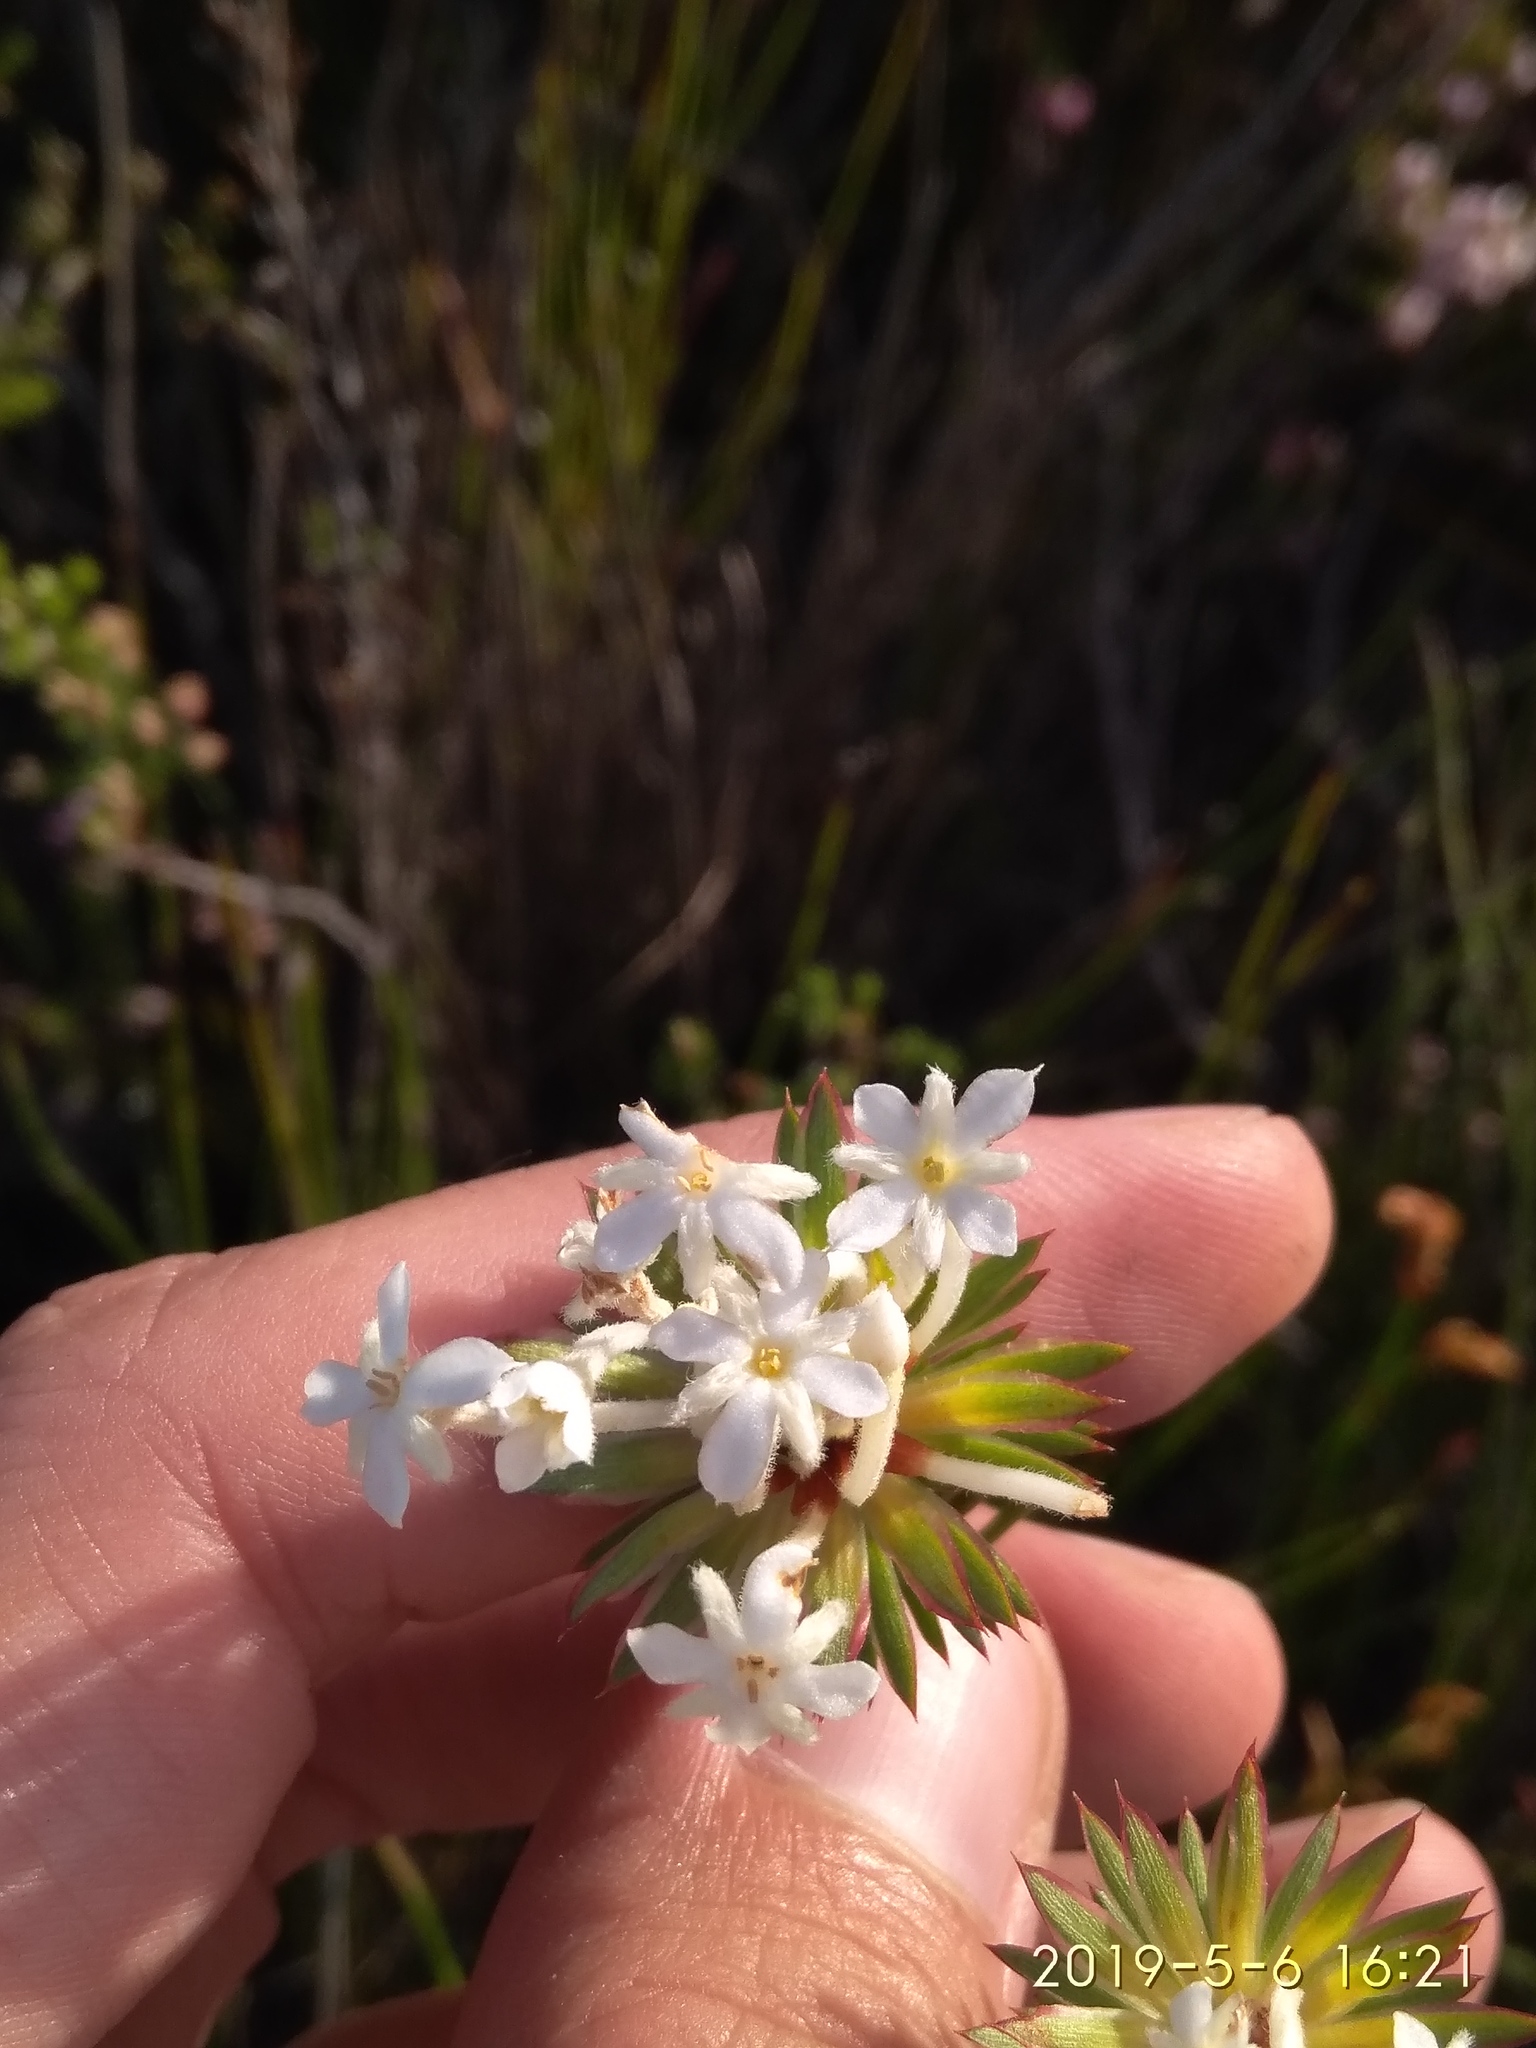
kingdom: Plantae
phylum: Tracheophyta
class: Magnoliopsida
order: Malvales
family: Thymelaeaceae
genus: Gnidia
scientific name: Gnidia pinifolia
